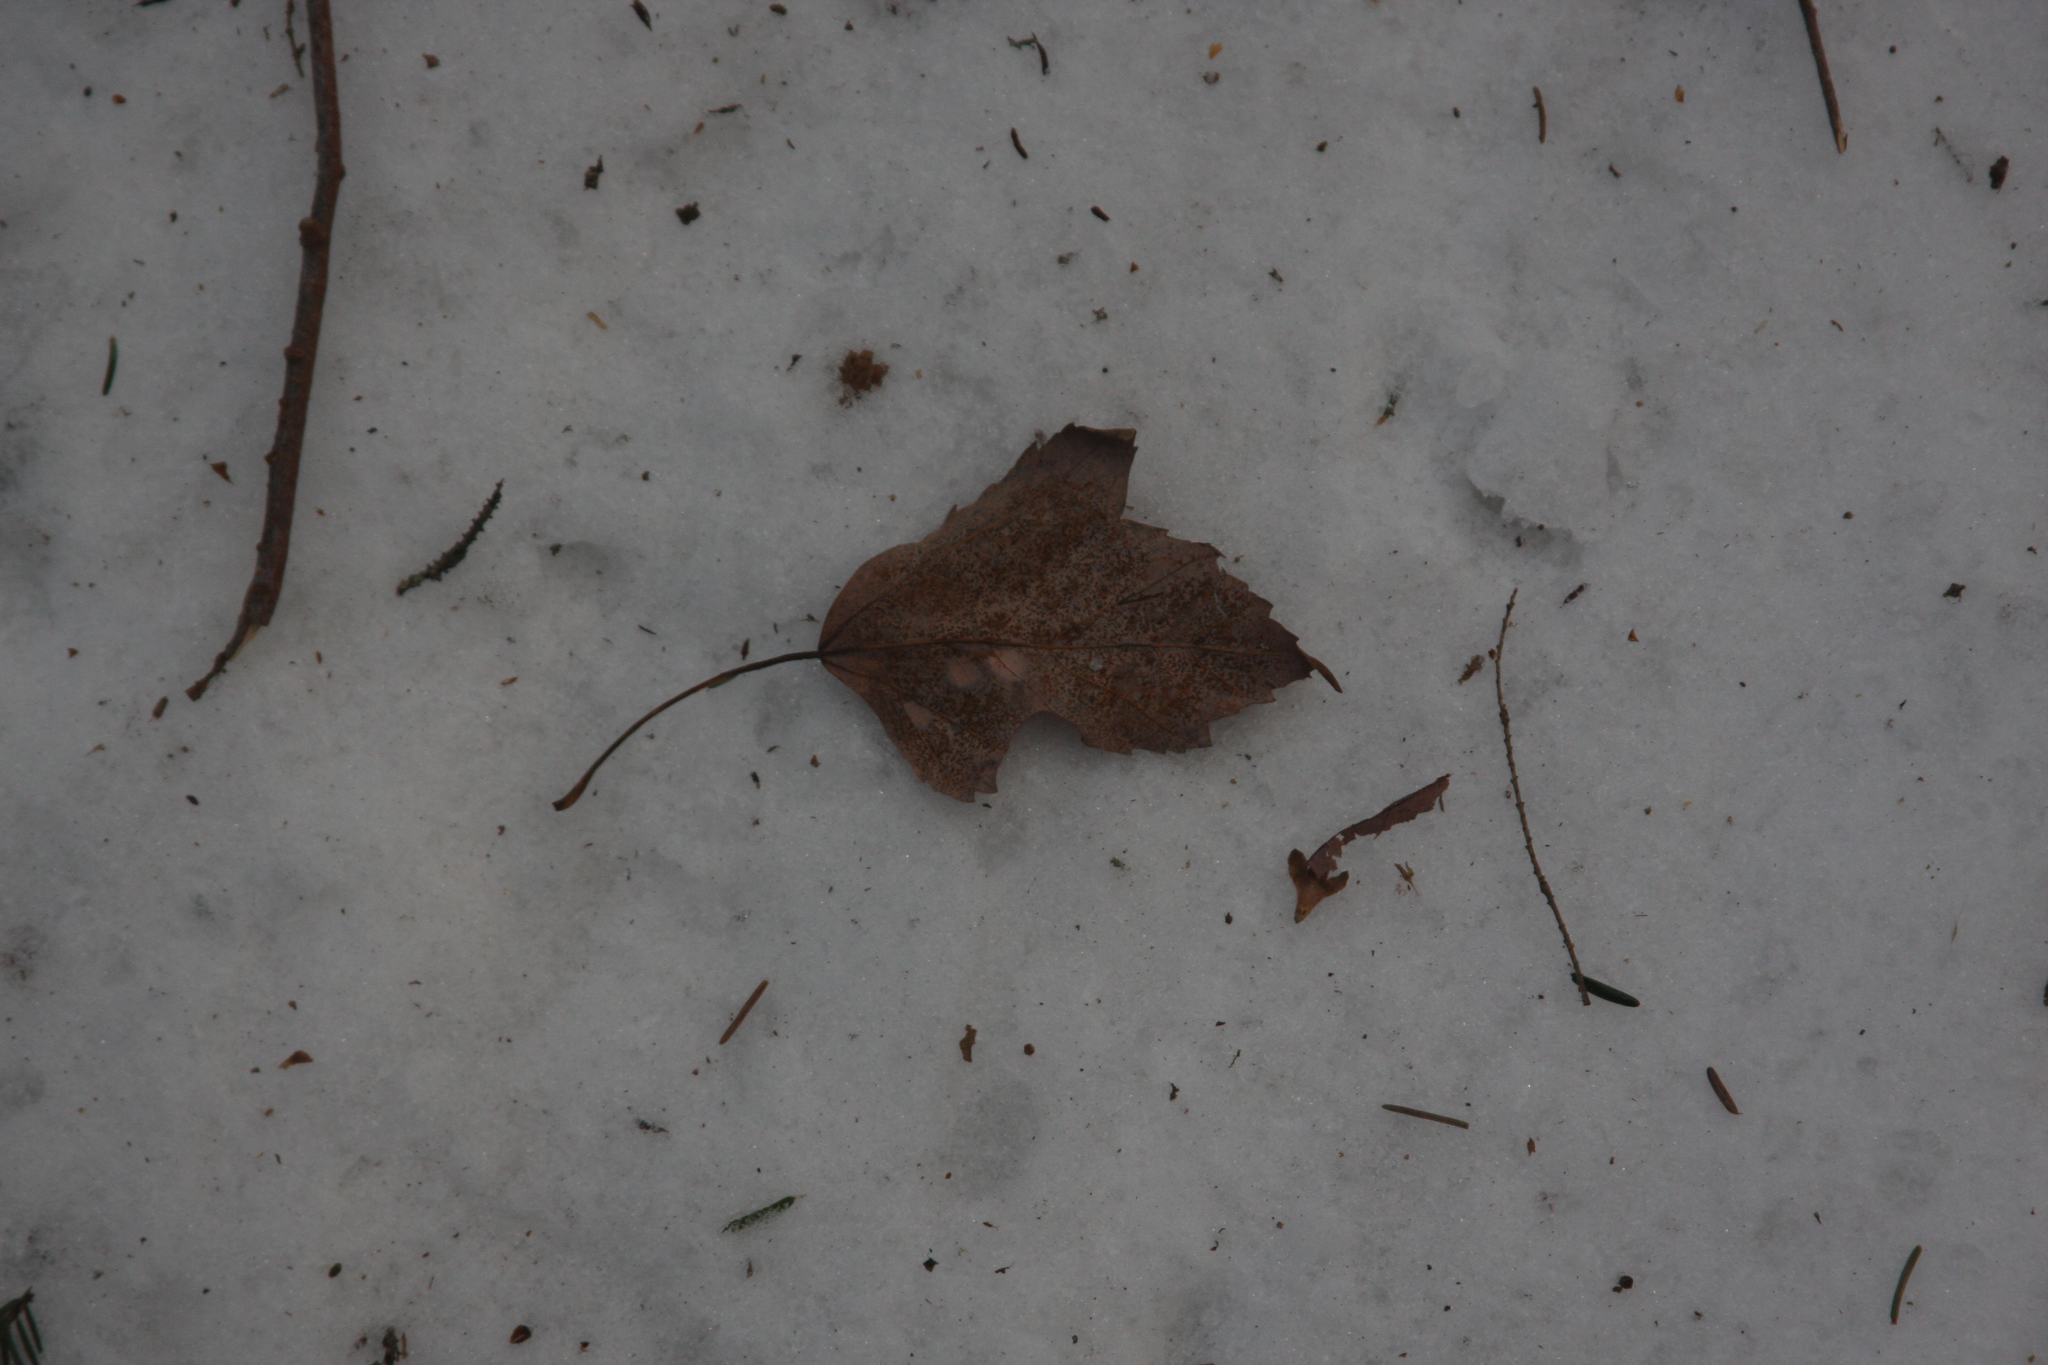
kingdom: Plantae
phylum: Tracheophyta
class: Magnoliopsida
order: Sapindales
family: Sapindaceae
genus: Acer
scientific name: Acer rubrum
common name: Red maple
